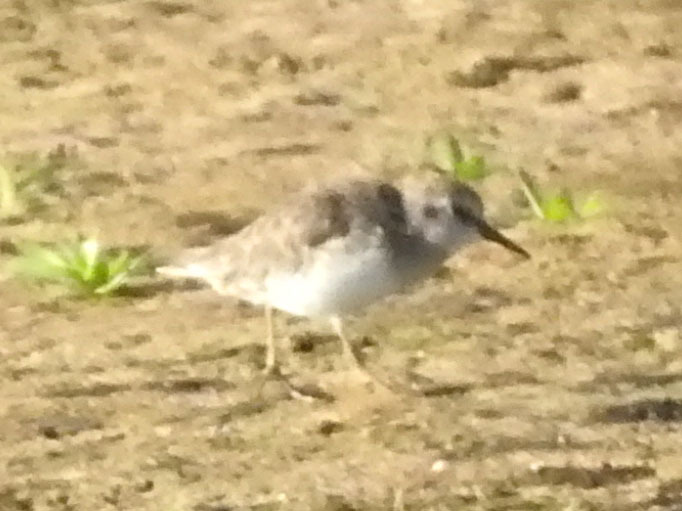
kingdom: Animalia
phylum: Chordata
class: Aves
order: Charadriiformes
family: Scolopacidae
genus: Calidris
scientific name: Calidris minutilla
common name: Least sandpiper
